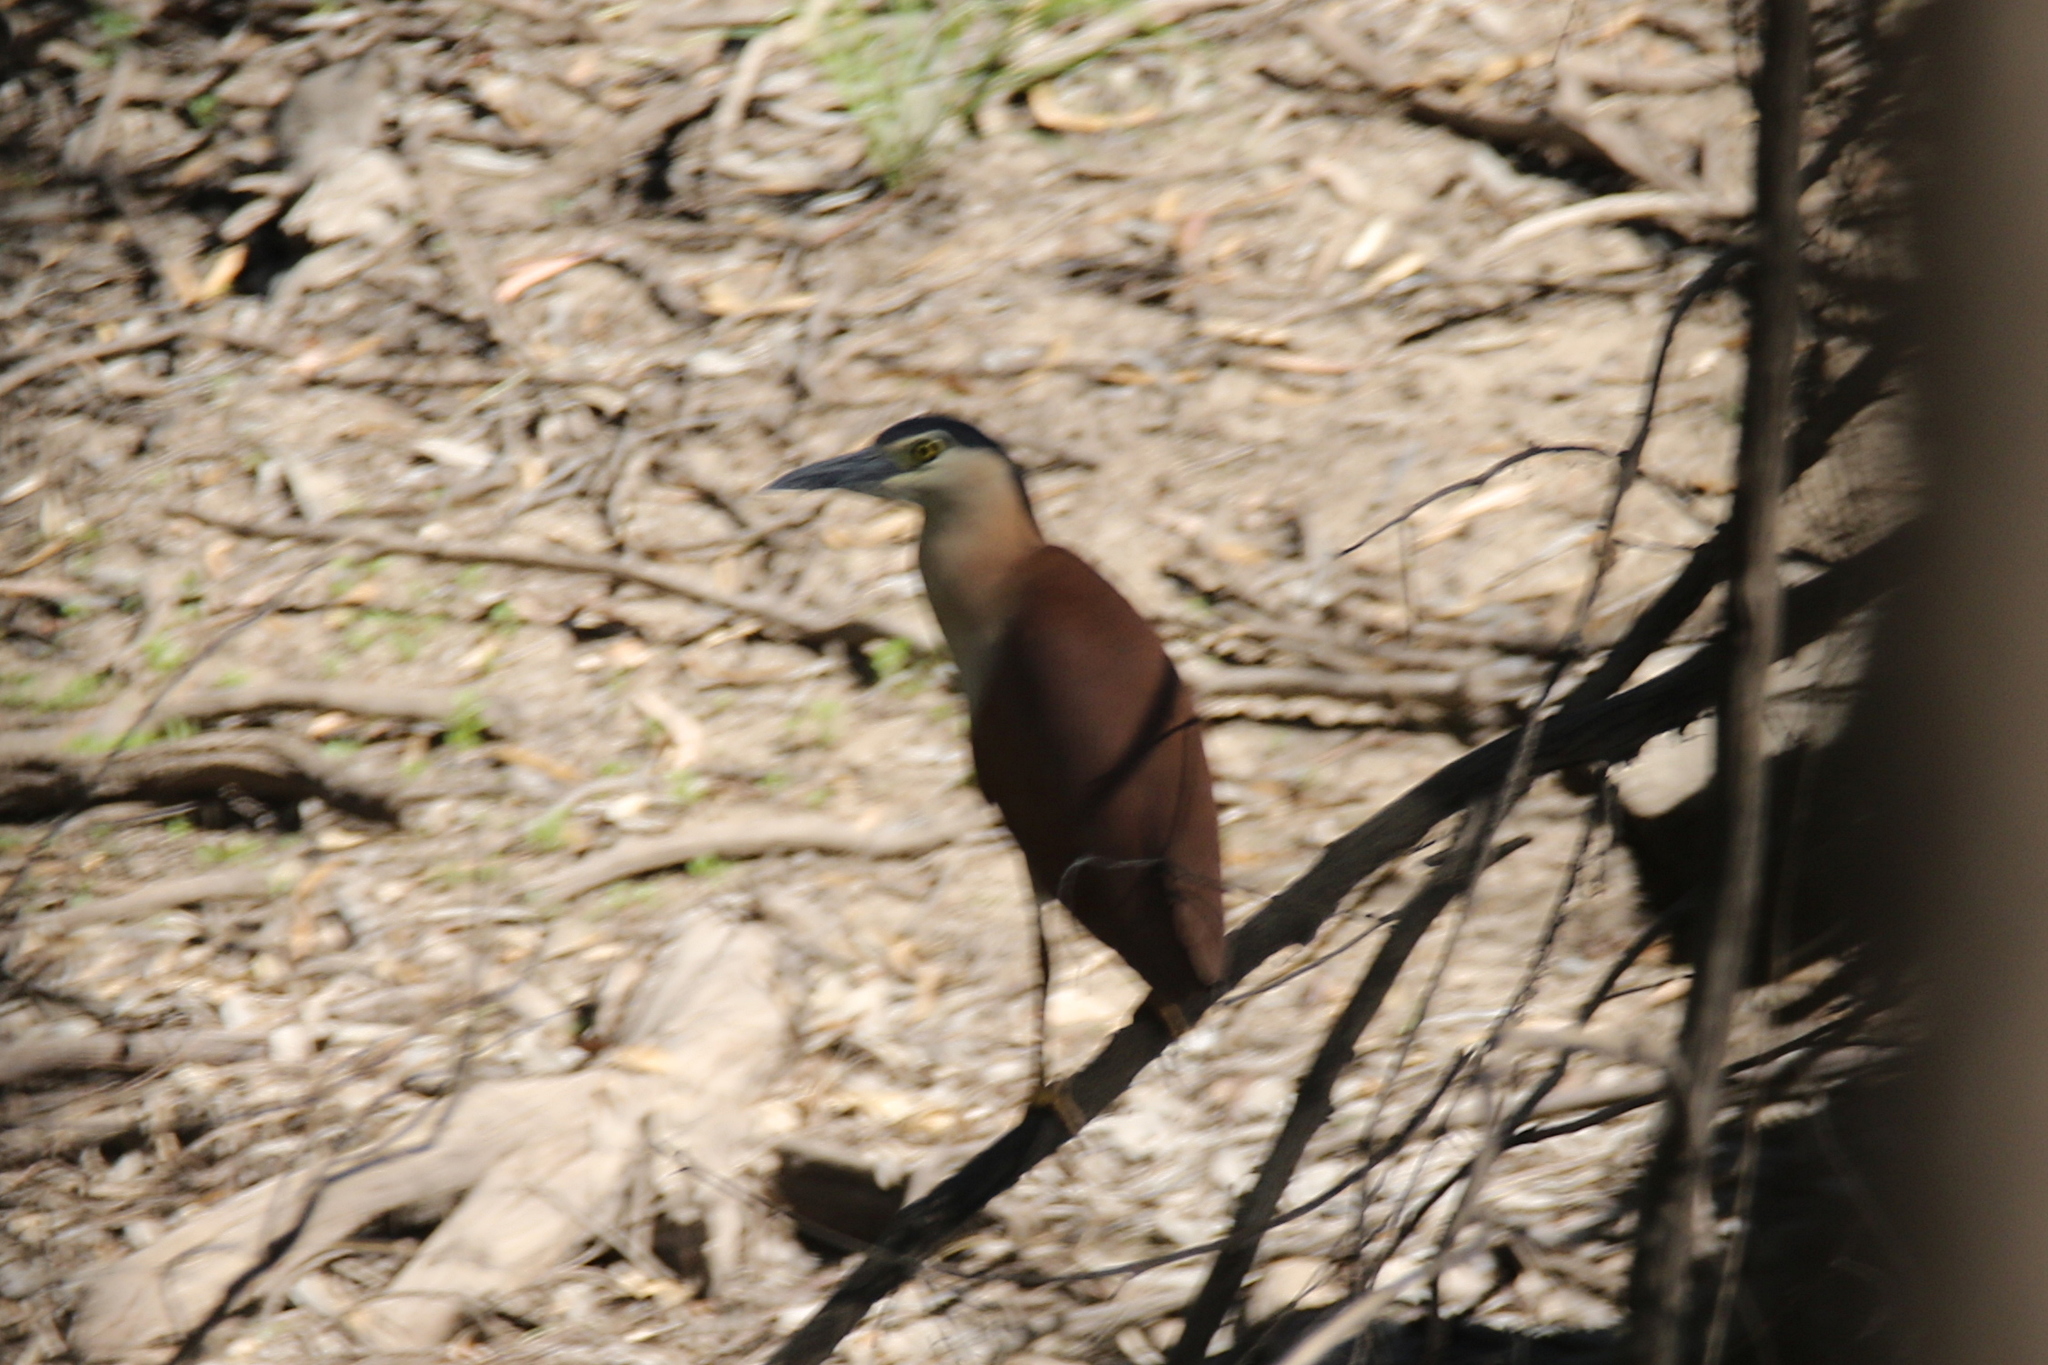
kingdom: Animalia
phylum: Chordata
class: Aves
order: Pelecaniformes
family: Ardeidae
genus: Nycticorax
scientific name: Nycticorax caledonicus
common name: Rufous night-heron
